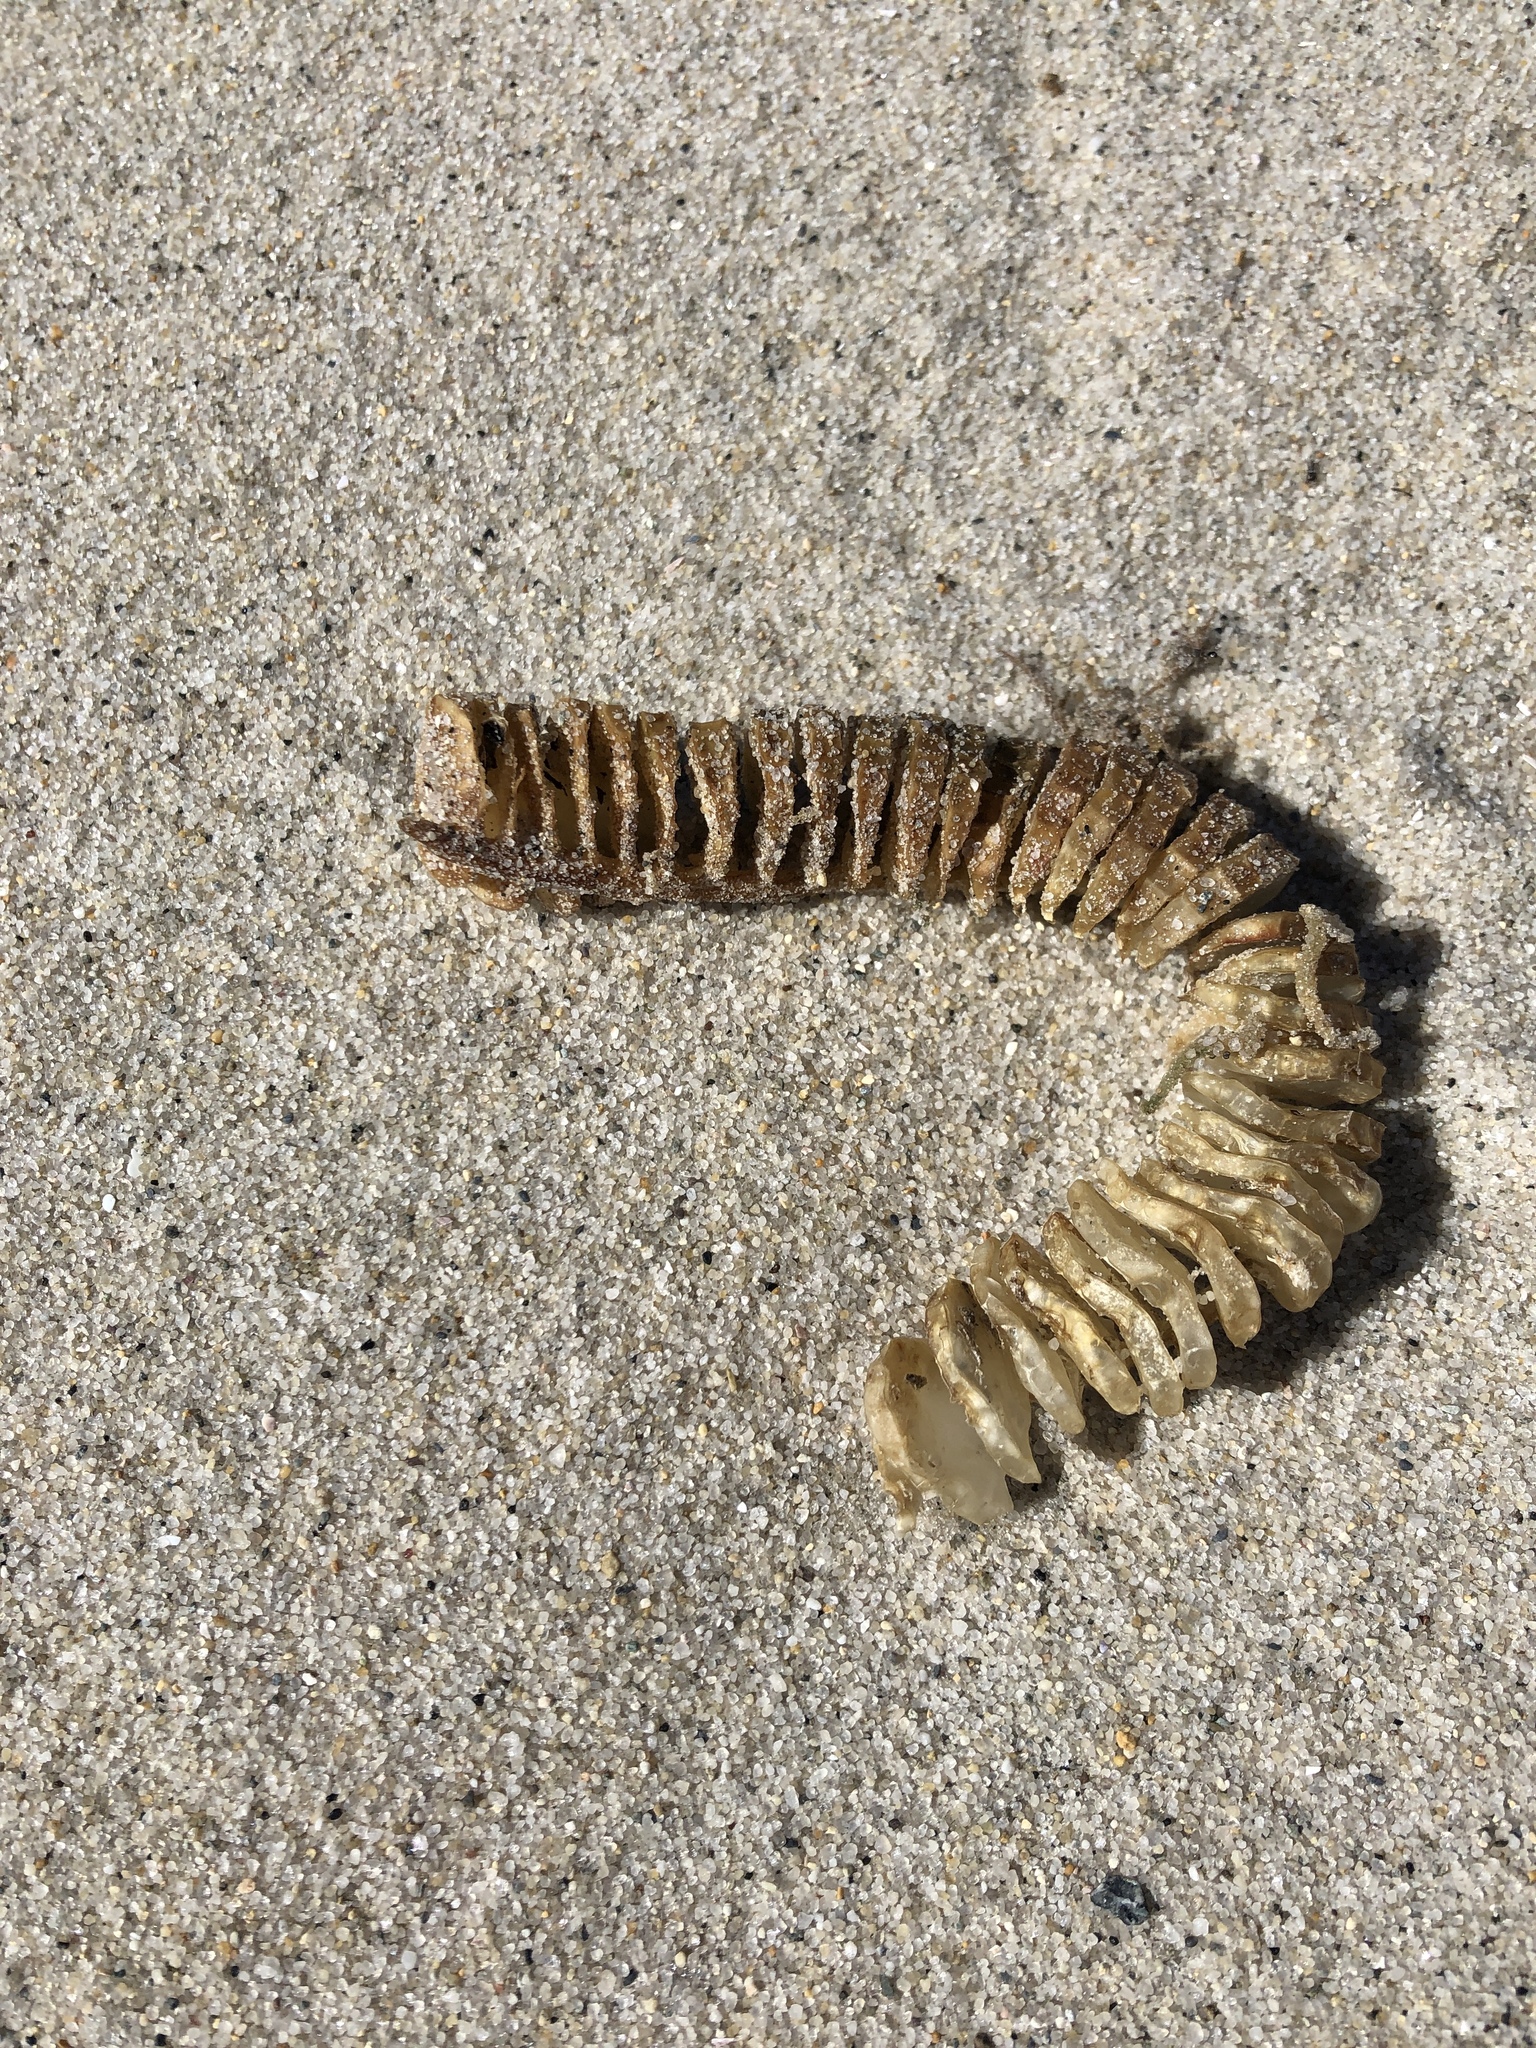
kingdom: Animalia
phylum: Mollusca
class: Gastropoda
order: Neogastropoda
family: Busyconidae
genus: Busycon
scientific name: Busycon carica
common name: Knobbed whelk
